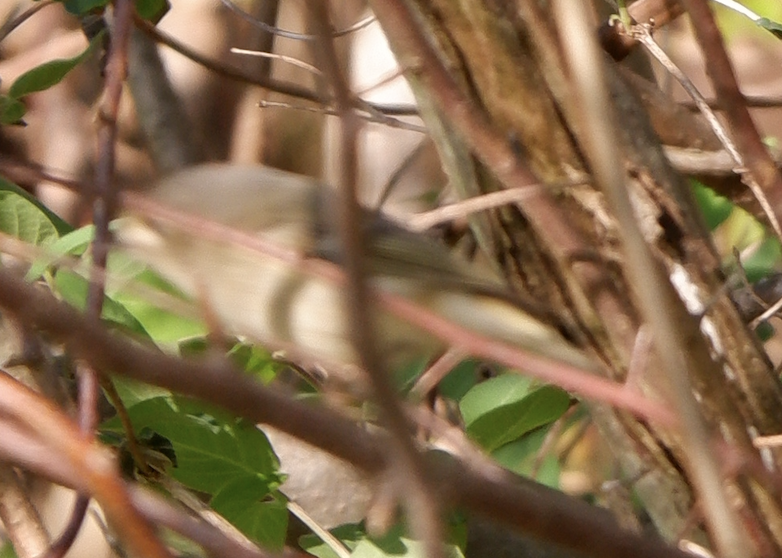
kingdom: Animalia
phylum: Chordata
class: Aves
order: Passeriformes
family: Regulidae
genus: Regulus
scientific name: Regulus calendula
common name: Ruby-crowned kinglet
